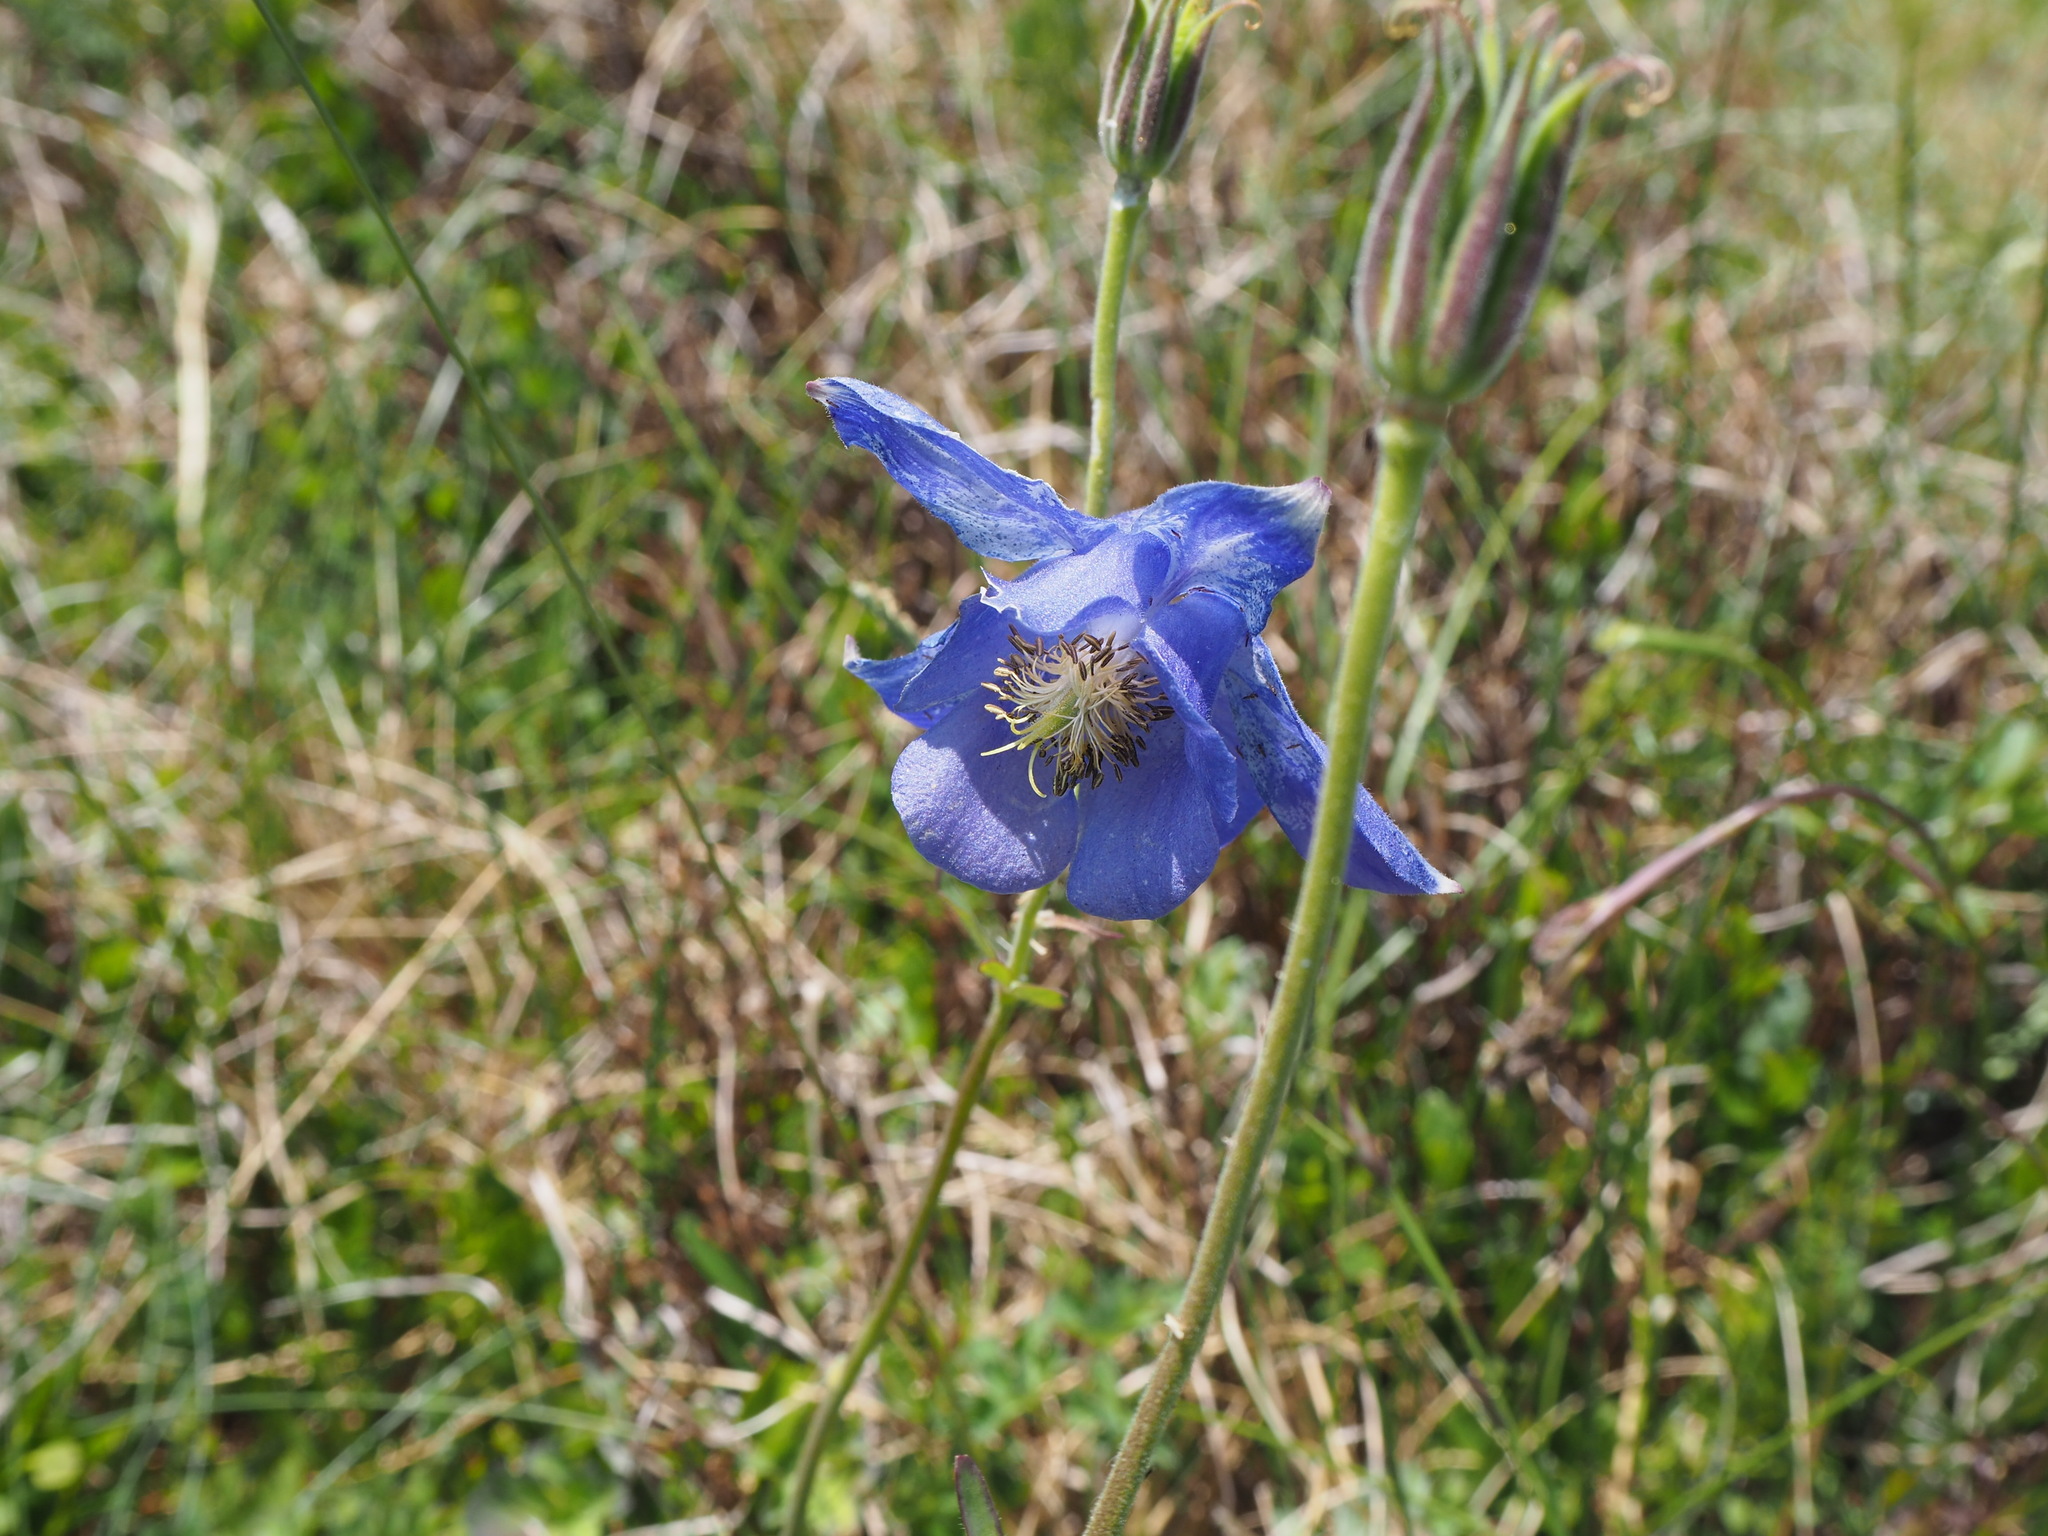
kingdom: Plantae
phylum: Tracheophyta
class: Magnoliopsida
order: Ranunculales
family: Ranunculaceae
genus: Aquilegia
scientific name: Aquilegia lucensis
